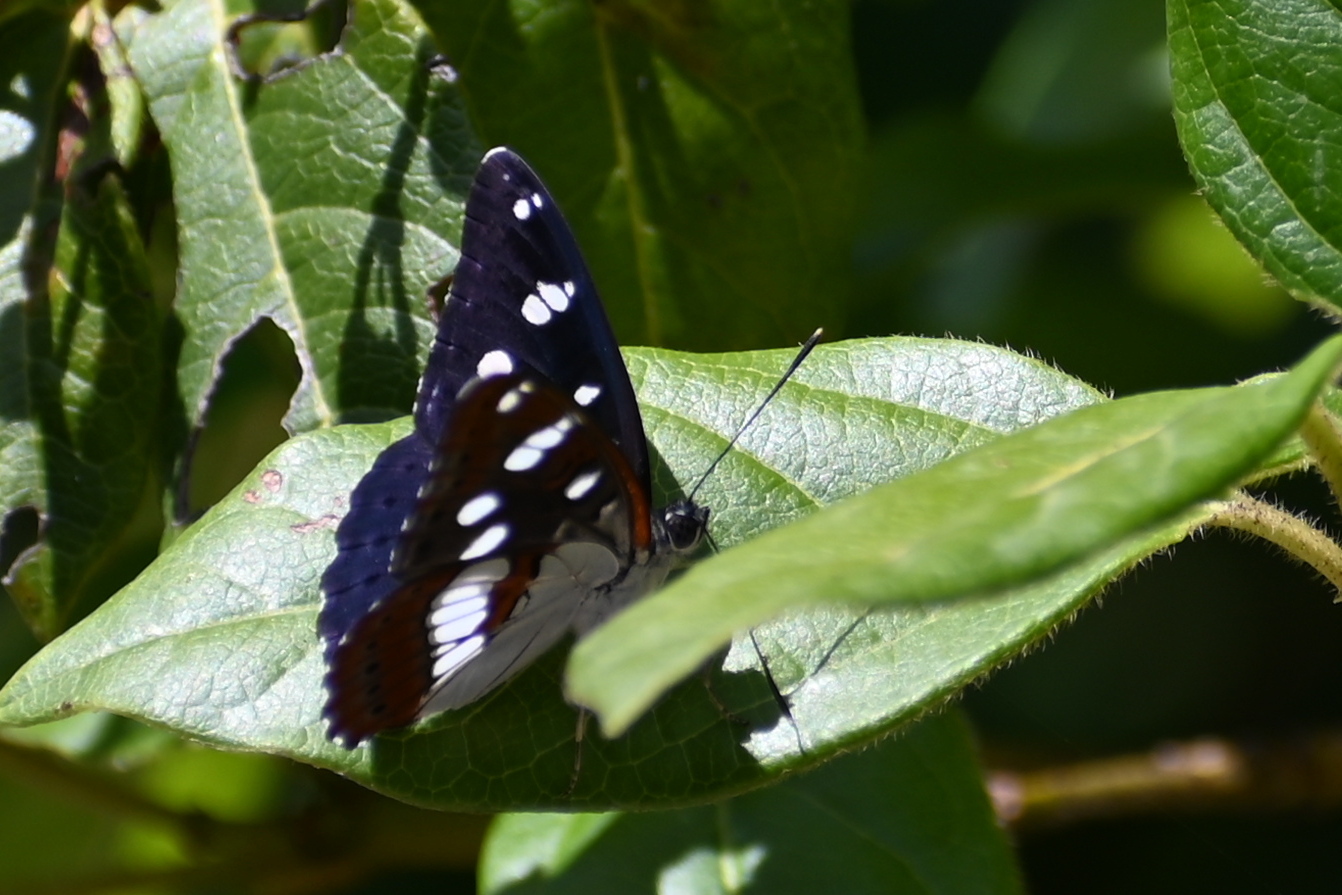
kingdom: Animalia
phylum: Arthropoda
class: Insecta
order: Lepidoptera
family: Nymphalidae
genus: Limenitis
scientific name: Limenitis reducta
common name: Southern white admiral
